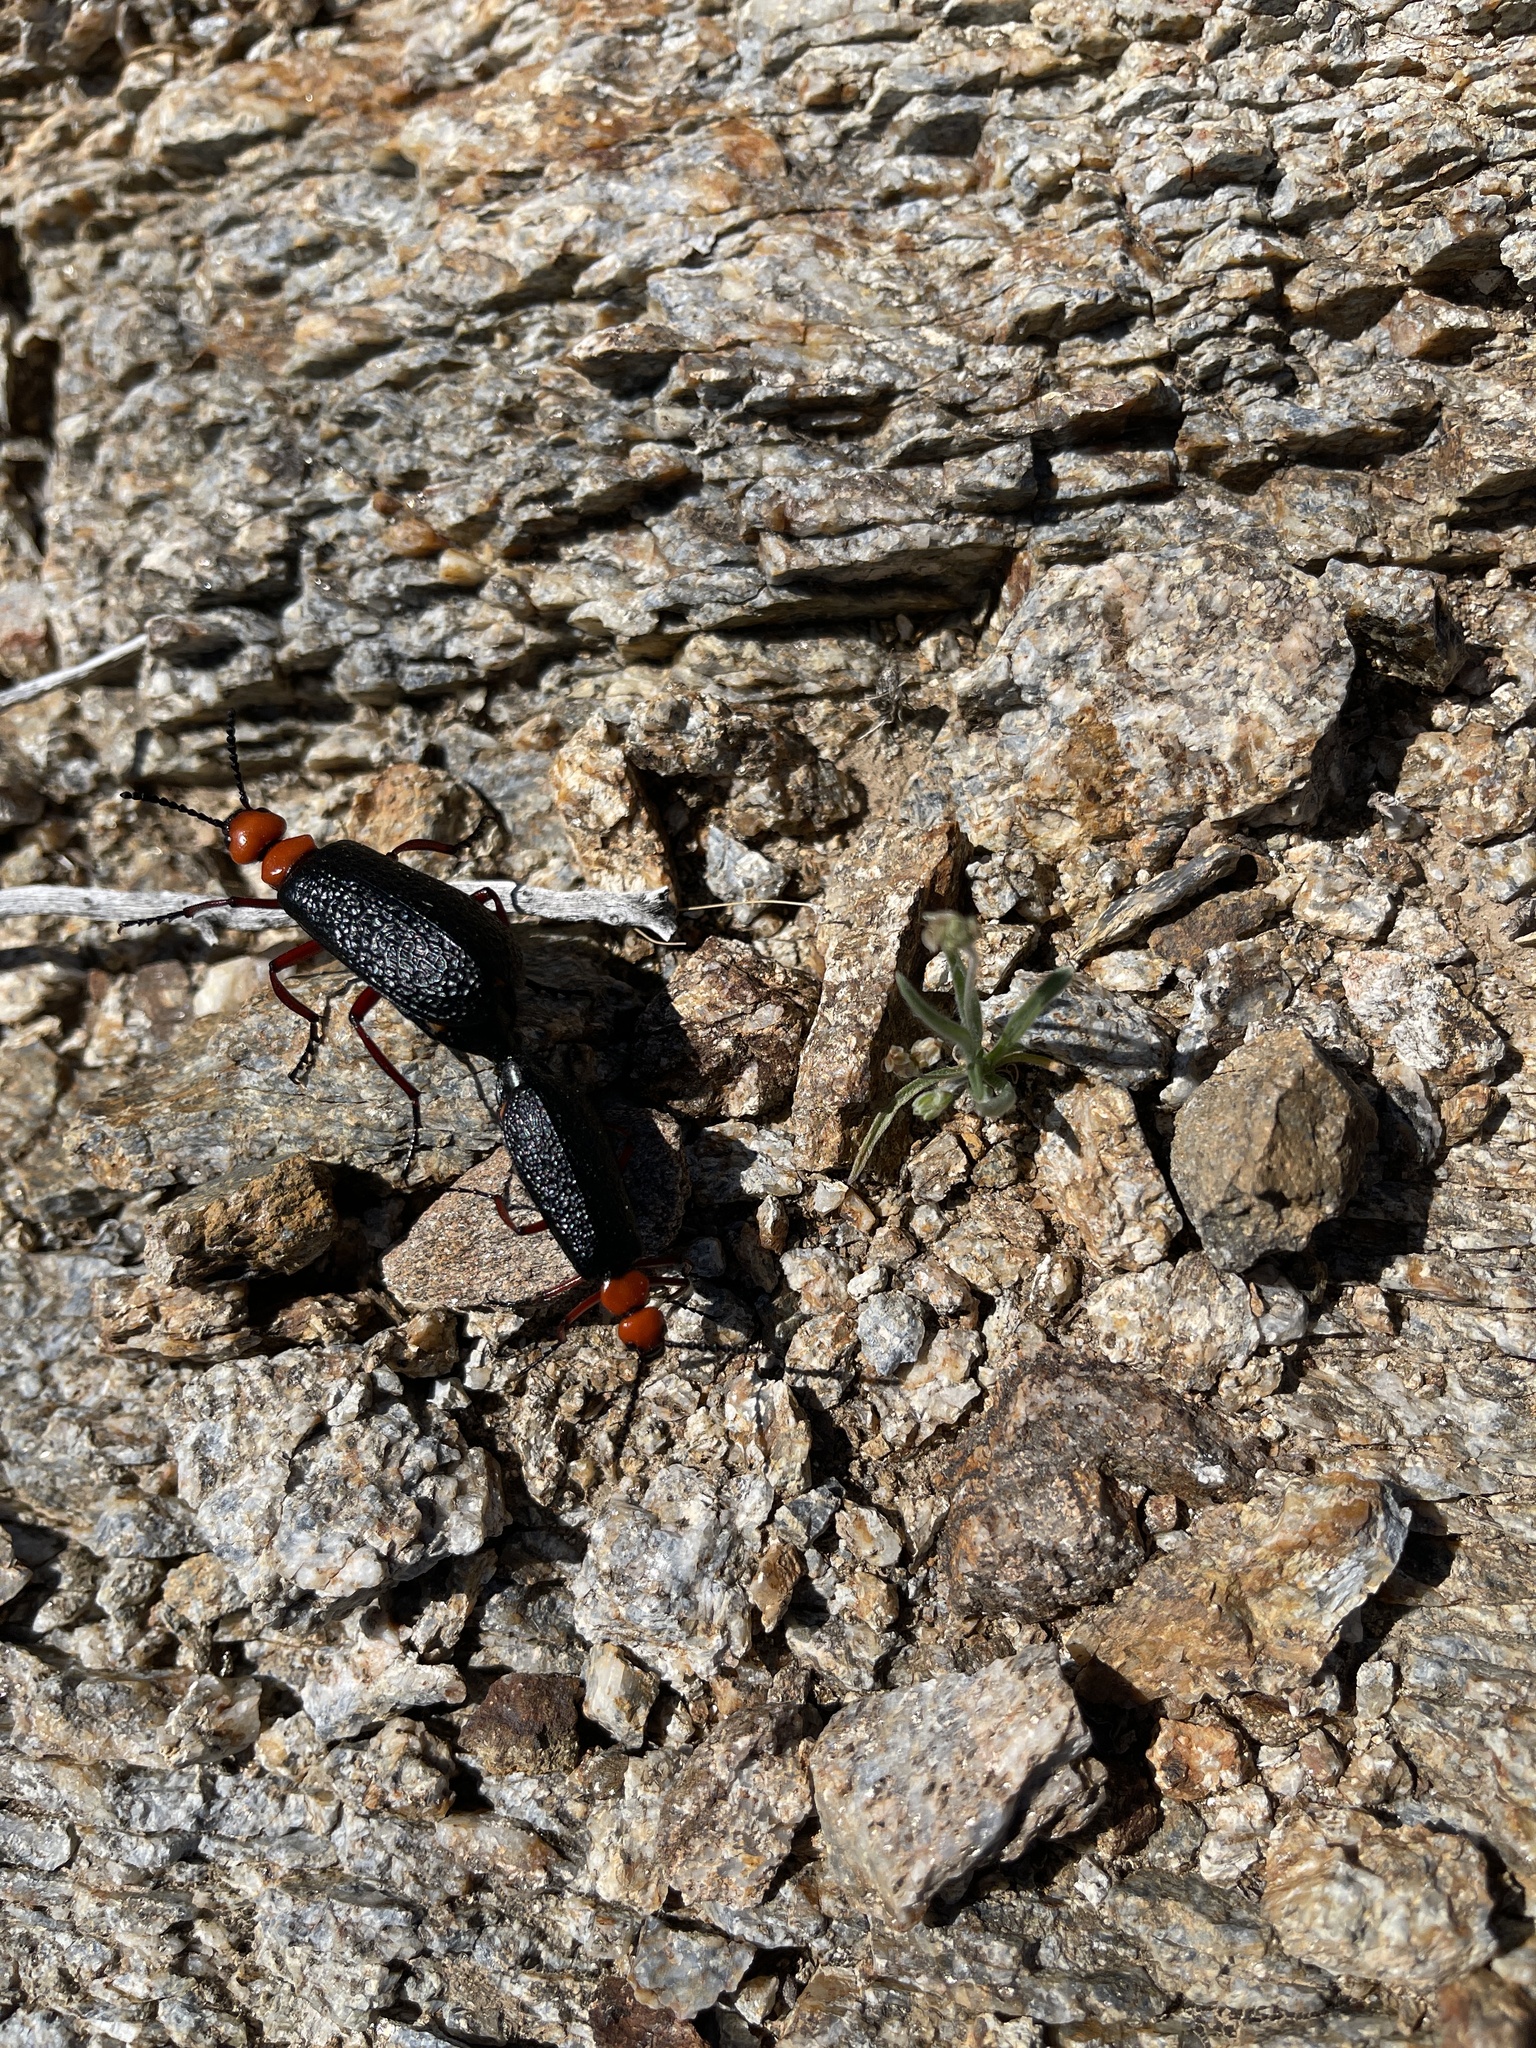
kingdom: Animalia
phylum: Arthropoda
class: Insecta
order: Coleoptera
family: Meloidae
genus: Lytta
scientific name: Lytta magister
